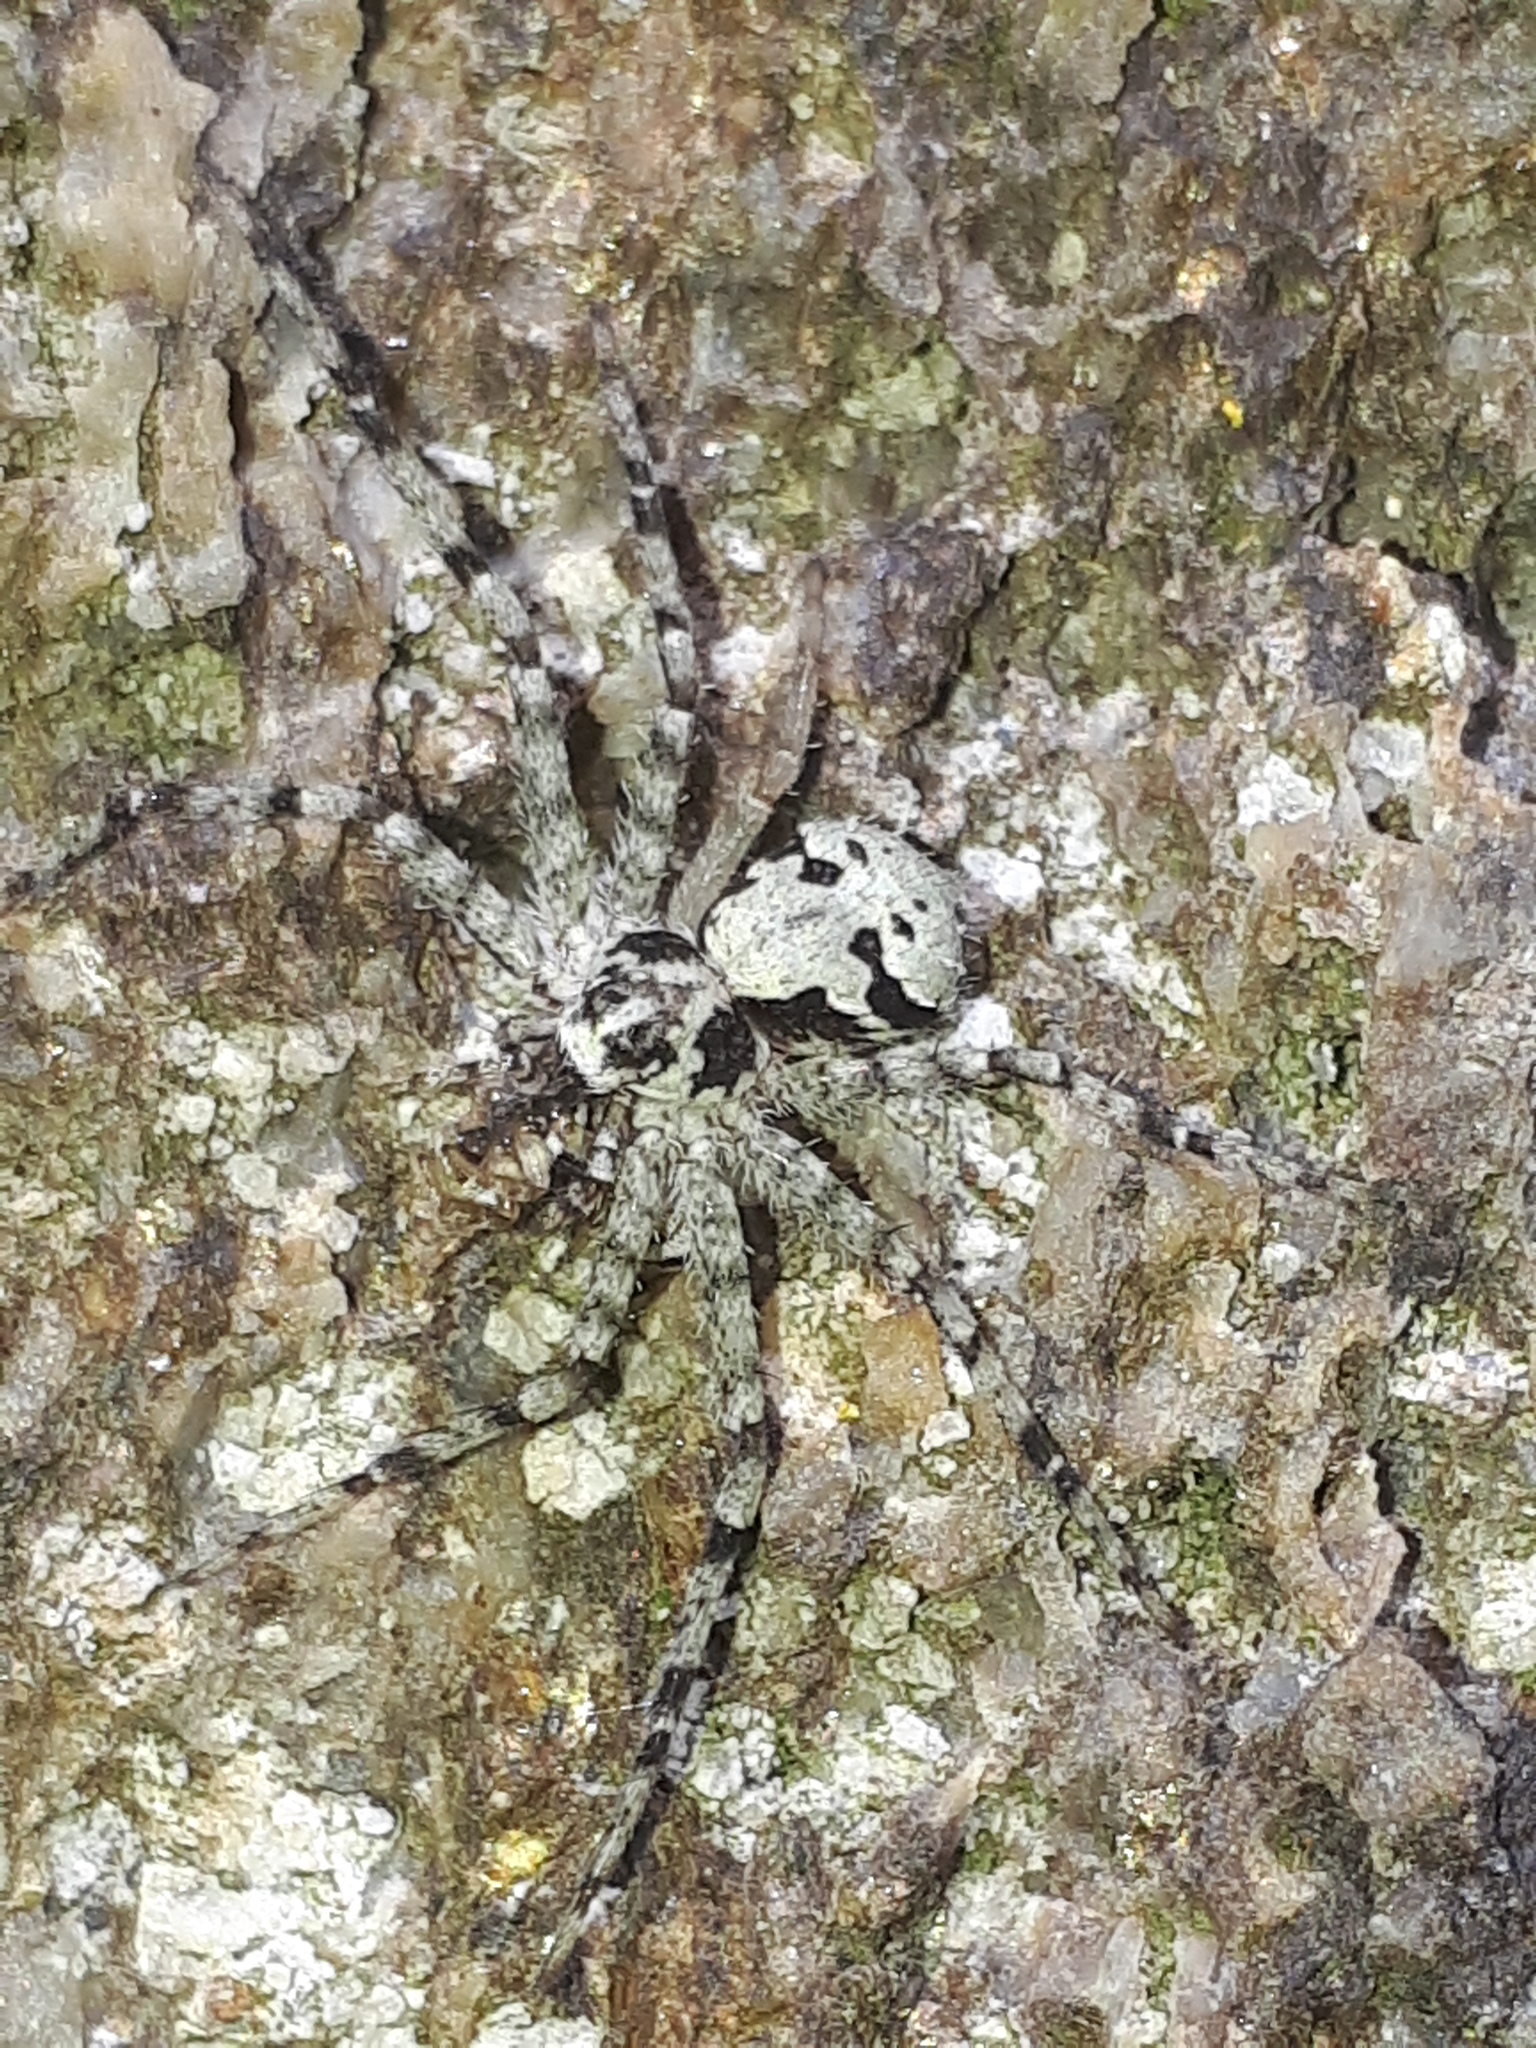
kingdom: Animalia
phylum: Arthropoda
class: Arachnida
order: Araneae
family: Philodromidae
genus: Philodromus
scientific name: Philodromus margaritatus
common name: Lichen running-spider
